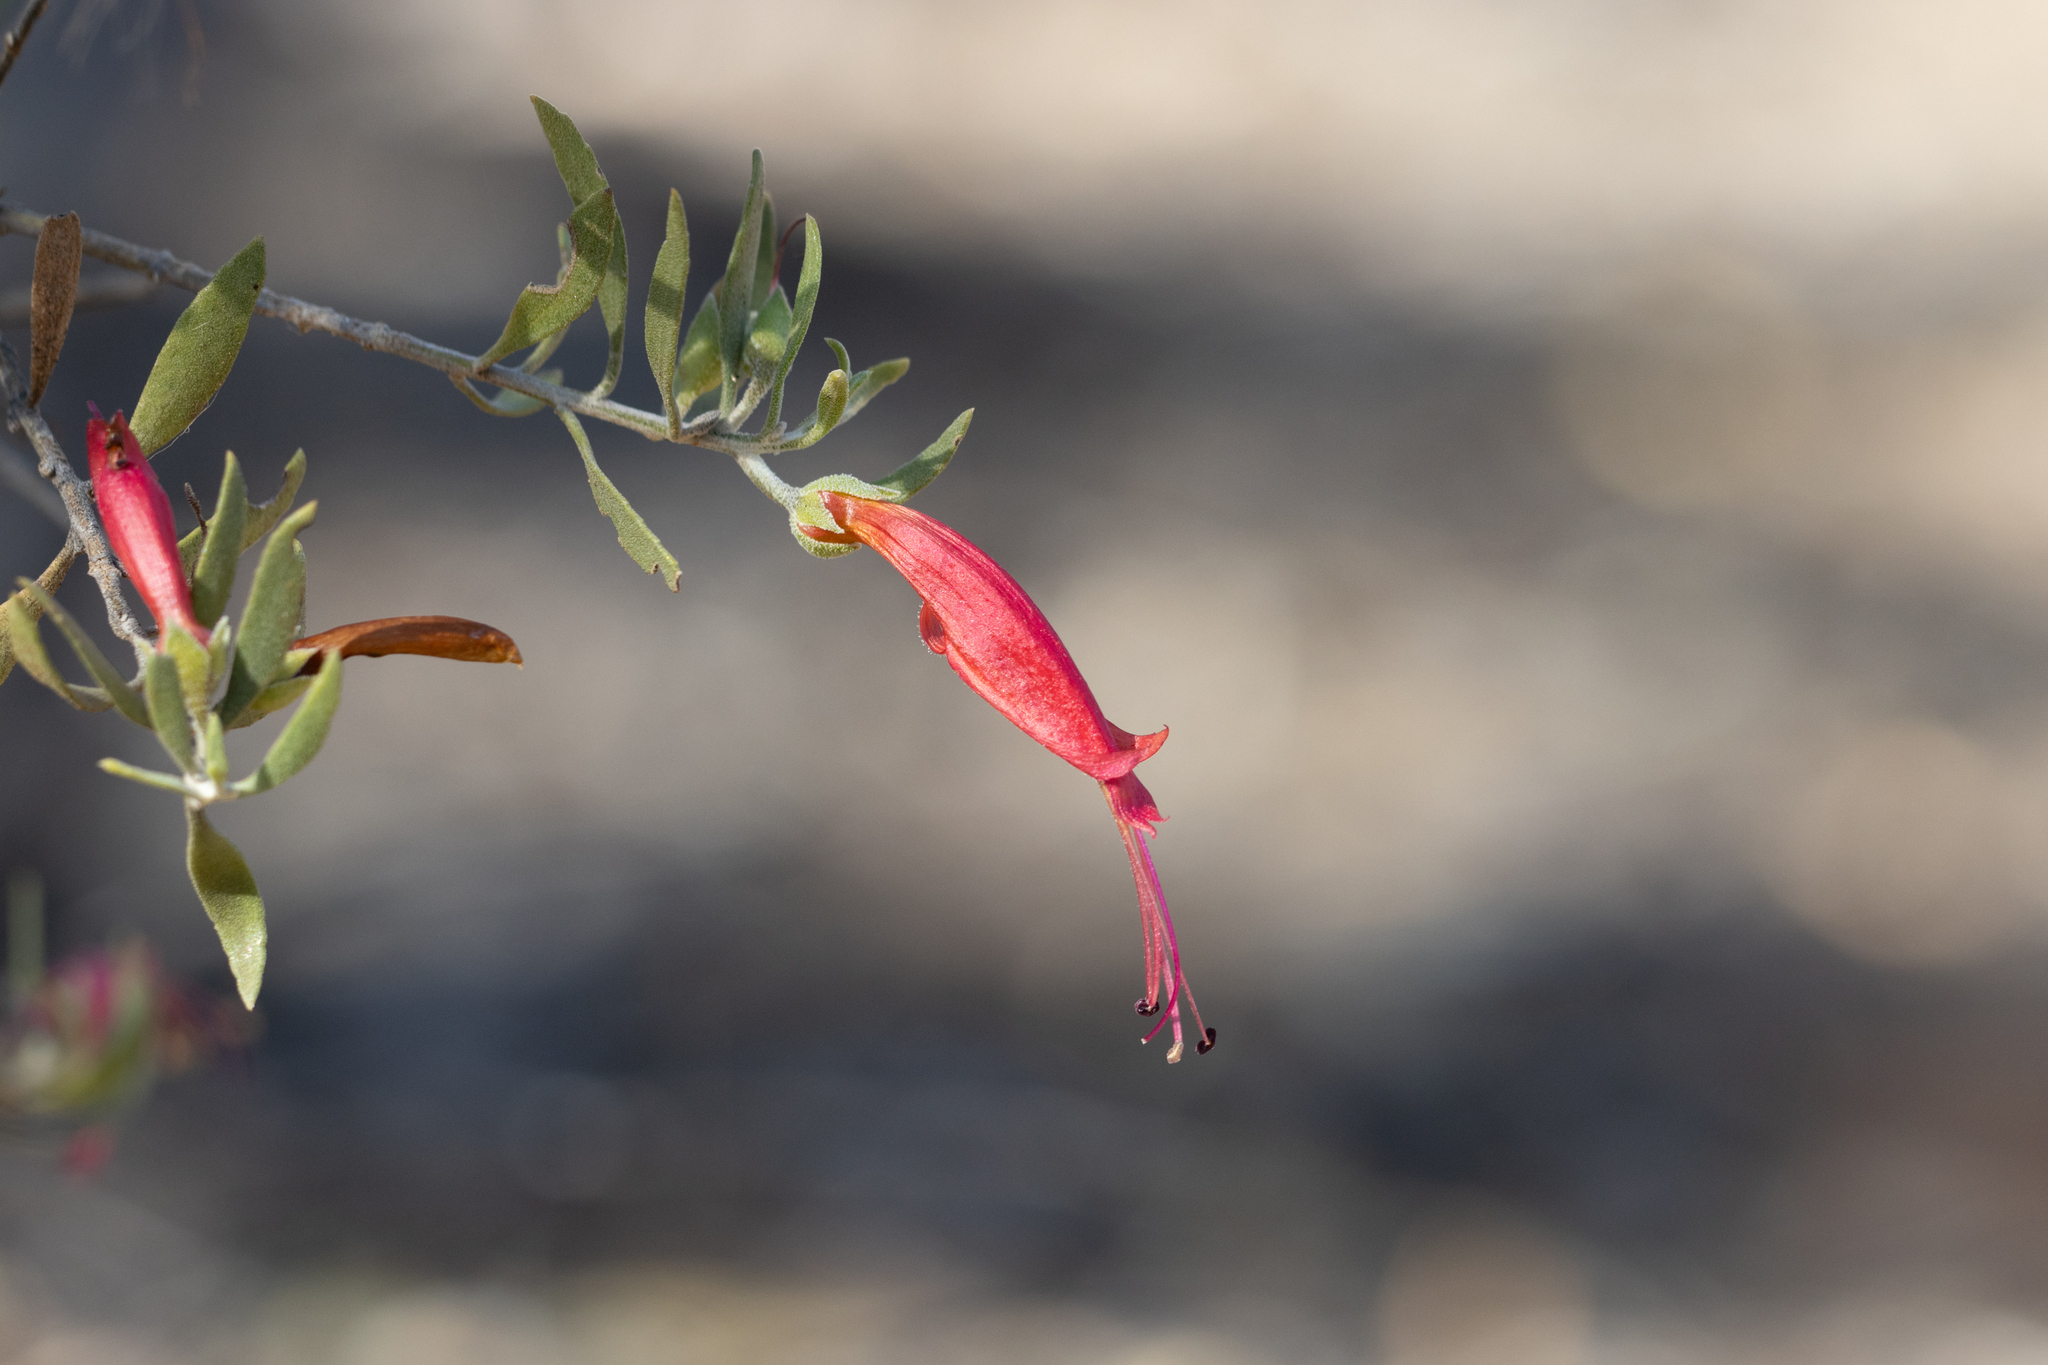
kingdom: Plantae
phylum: Tracheophyta
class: Magnoliopsida
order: Lamiales
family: Scrophulariaceae
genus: Eremophila
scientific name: Eremophila glabra
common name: Black-fuchsia
